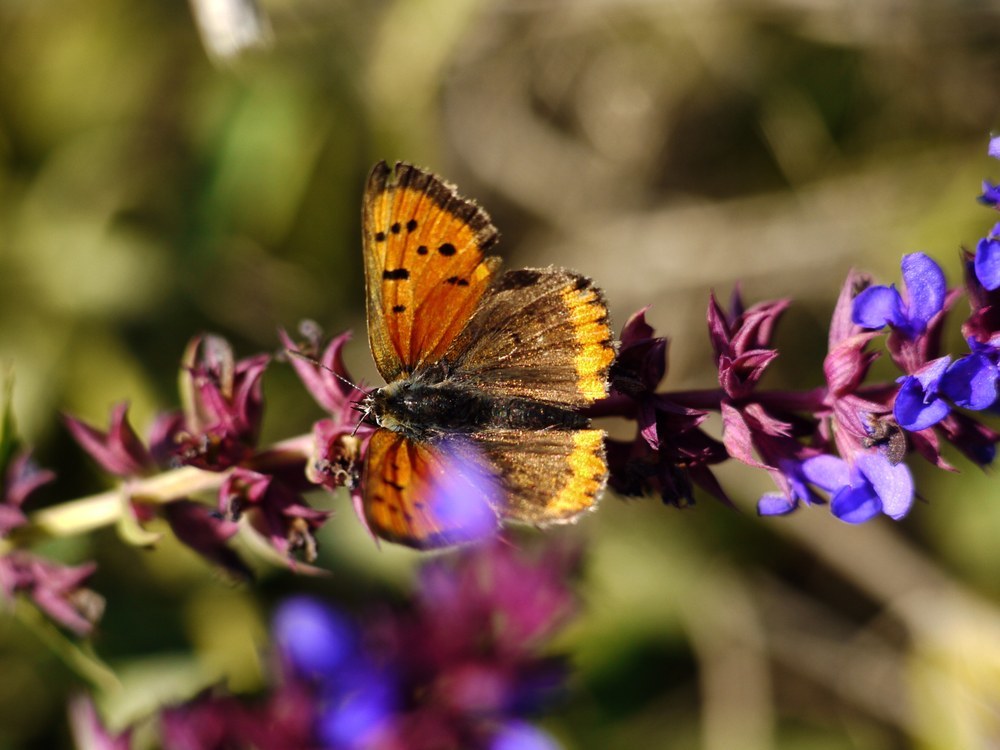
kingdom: Animalia
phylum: Arthropoda
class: Insecta
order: Lepidoptera
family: Lycaenidae
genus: Lycaena
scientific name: Lycaena phlaeas
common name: Small copper
